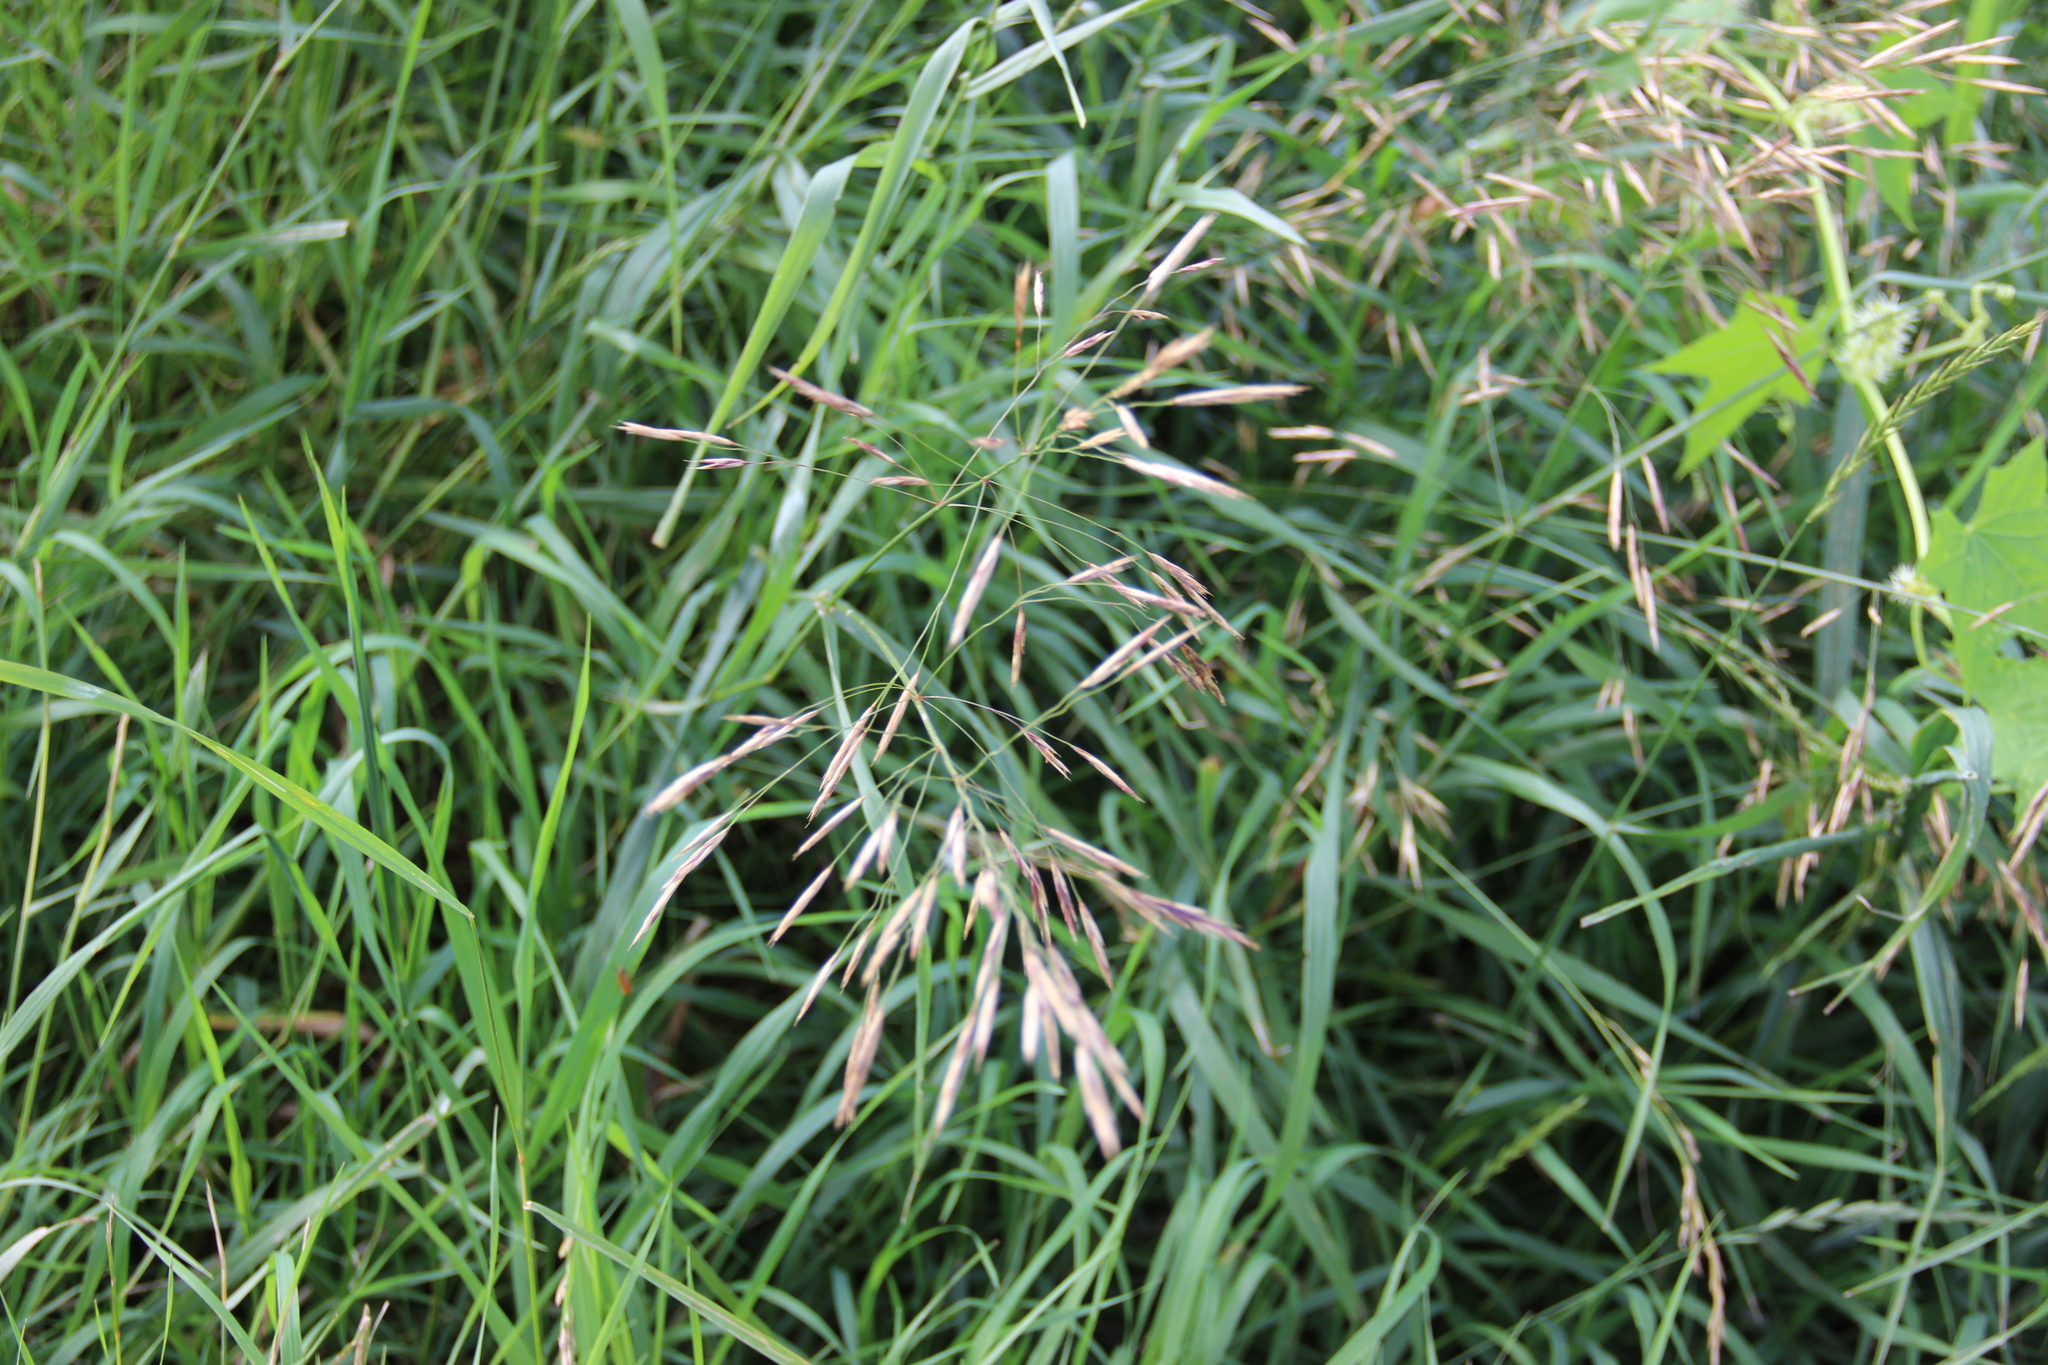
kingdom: Plantae
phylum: Tracheophyta
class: Liliopsida
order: Poales
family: Poaceae
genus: Bromus
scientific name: Bromus inermis
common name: Smooth brome
